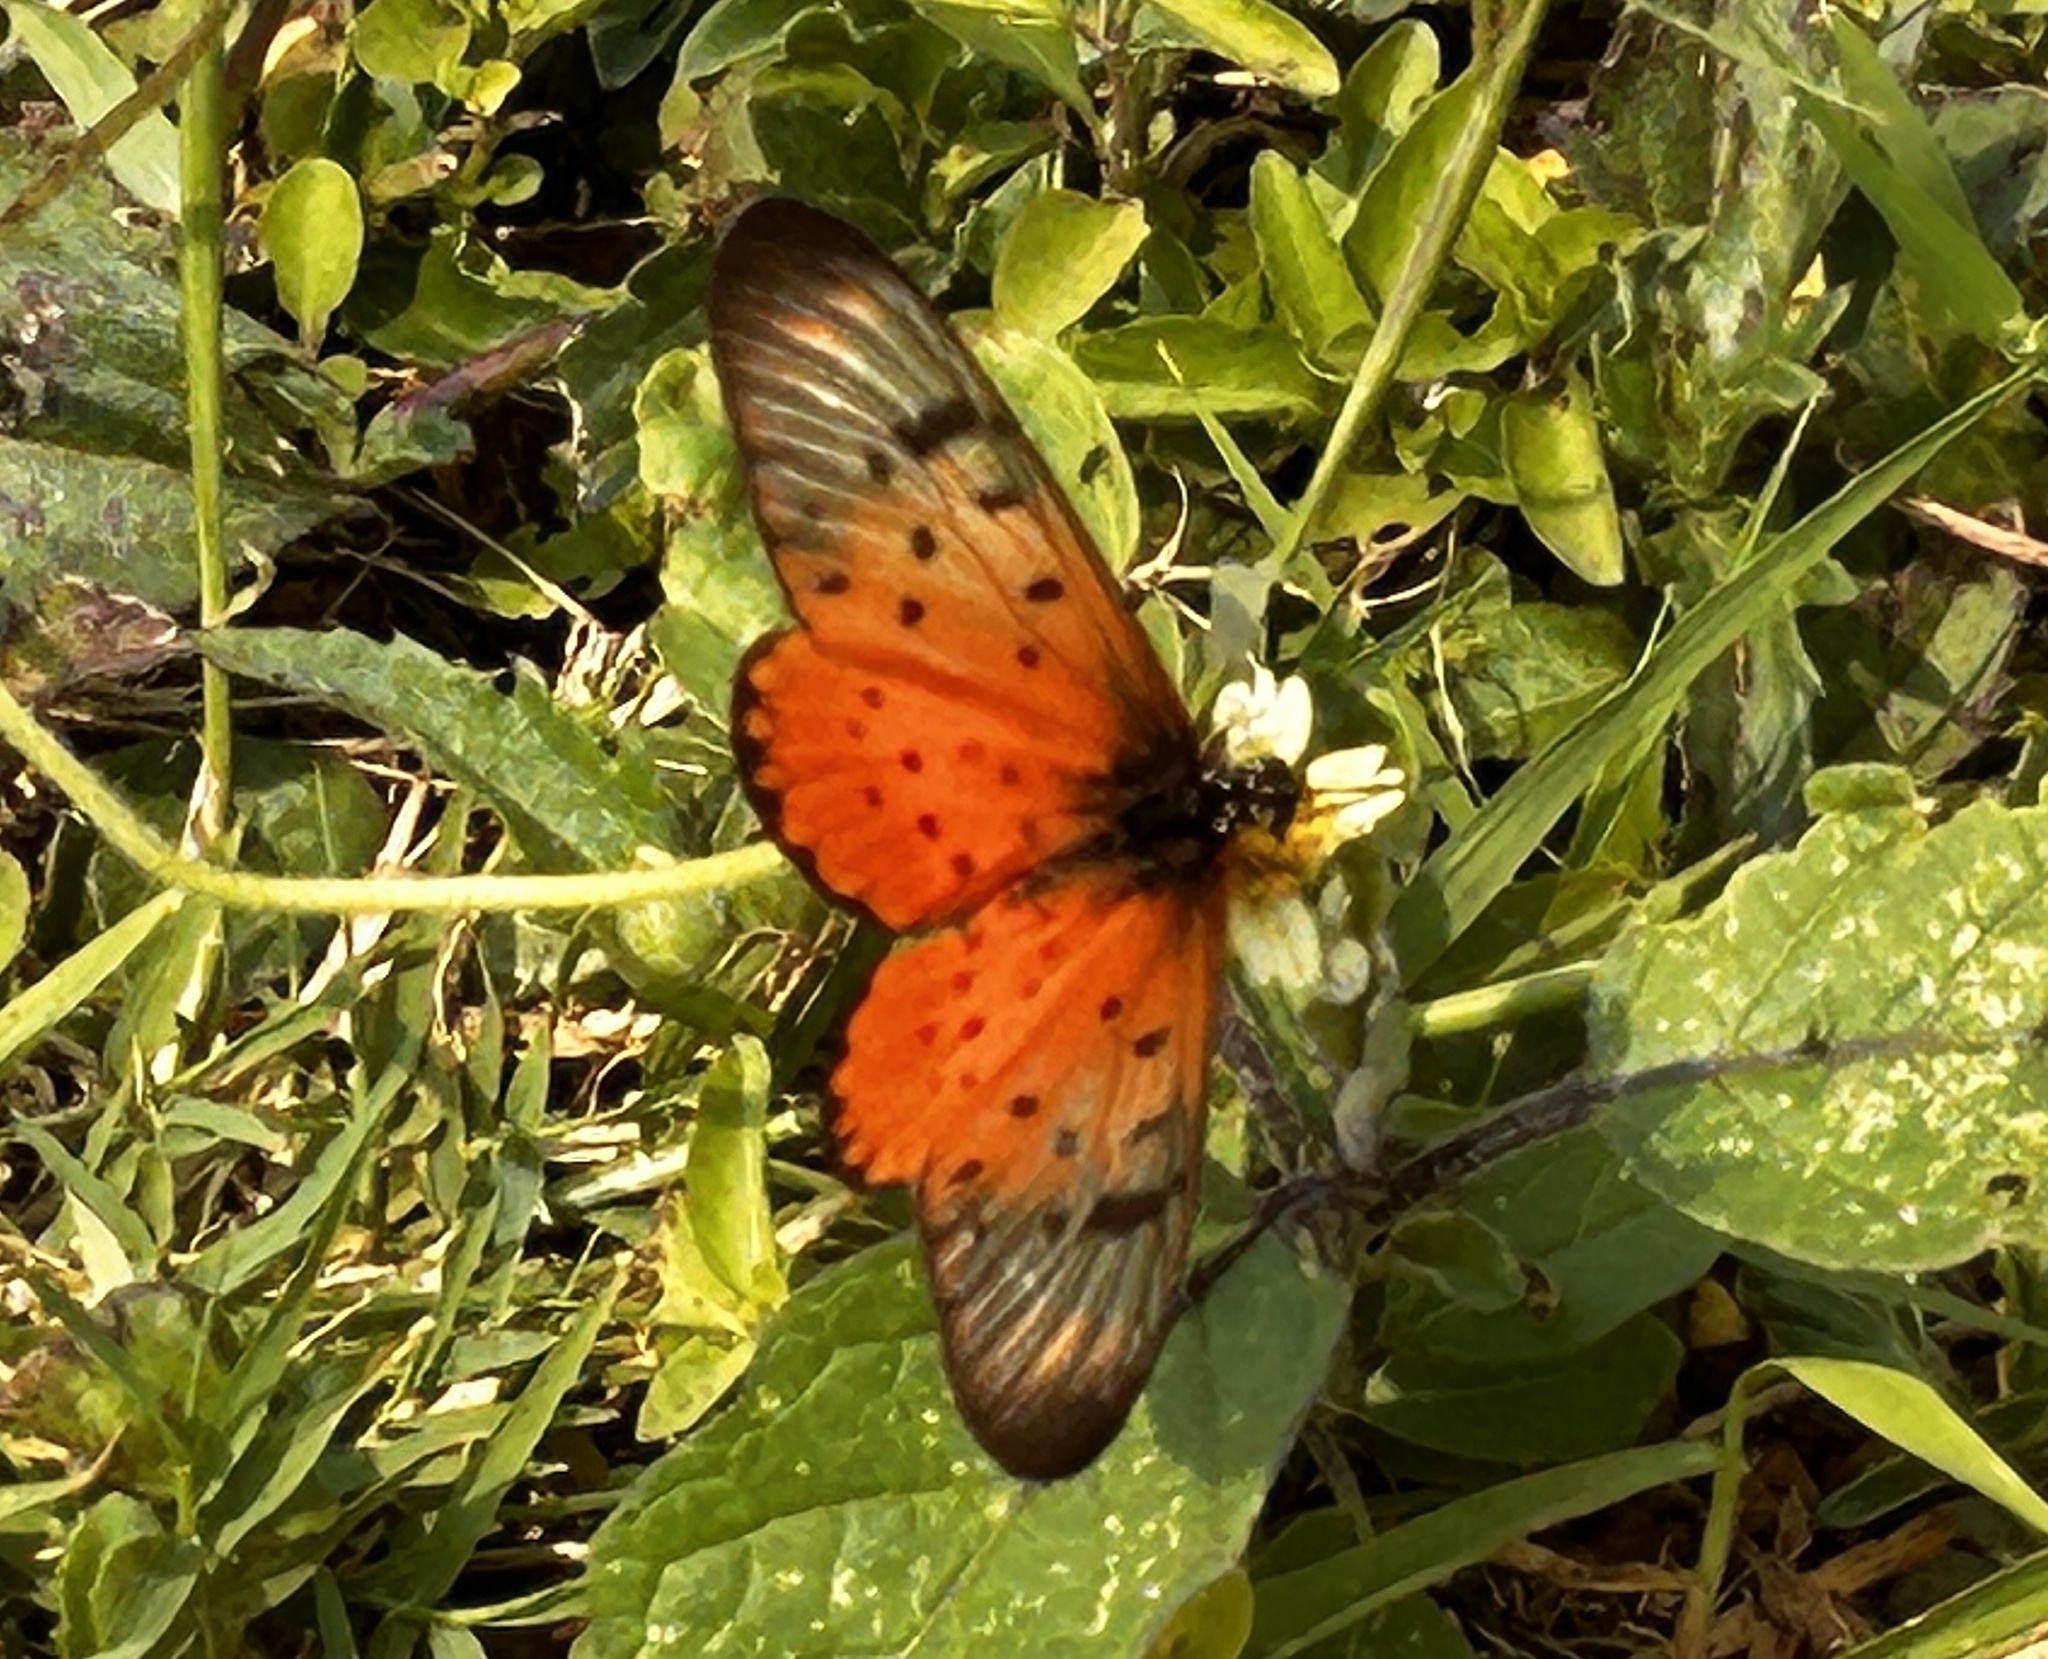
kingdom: Animalia
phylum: Arthropoda
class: Insecta
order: Lepidoptera
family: Nymphalidae
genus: Stephenia
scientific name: Stephenia
